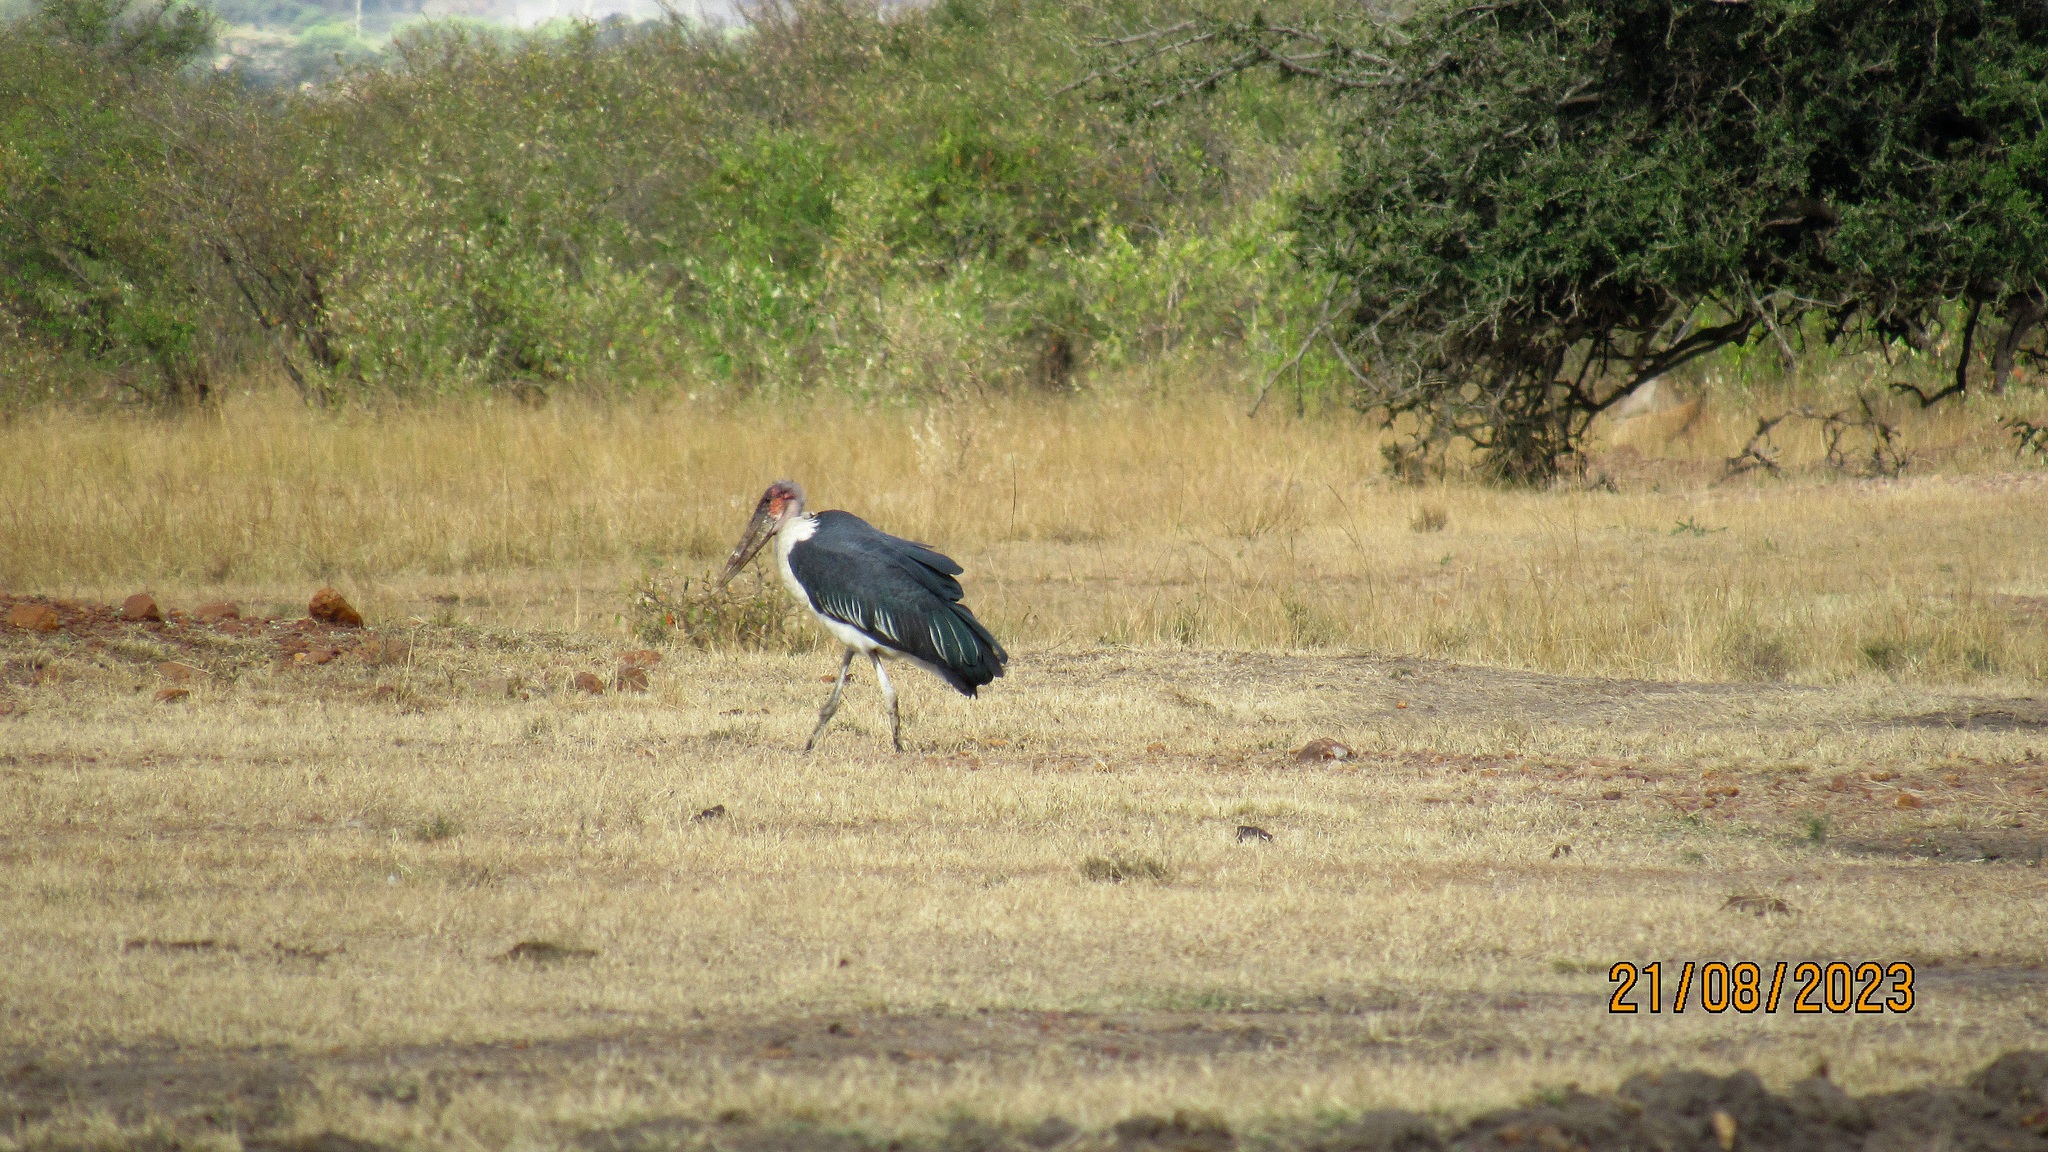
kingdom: Animalia
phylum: Chordata
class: Aves
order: Ciconiiformes
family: Ciconiidae
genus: Leptoptilos
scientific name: Leptoptilos crumenifer
